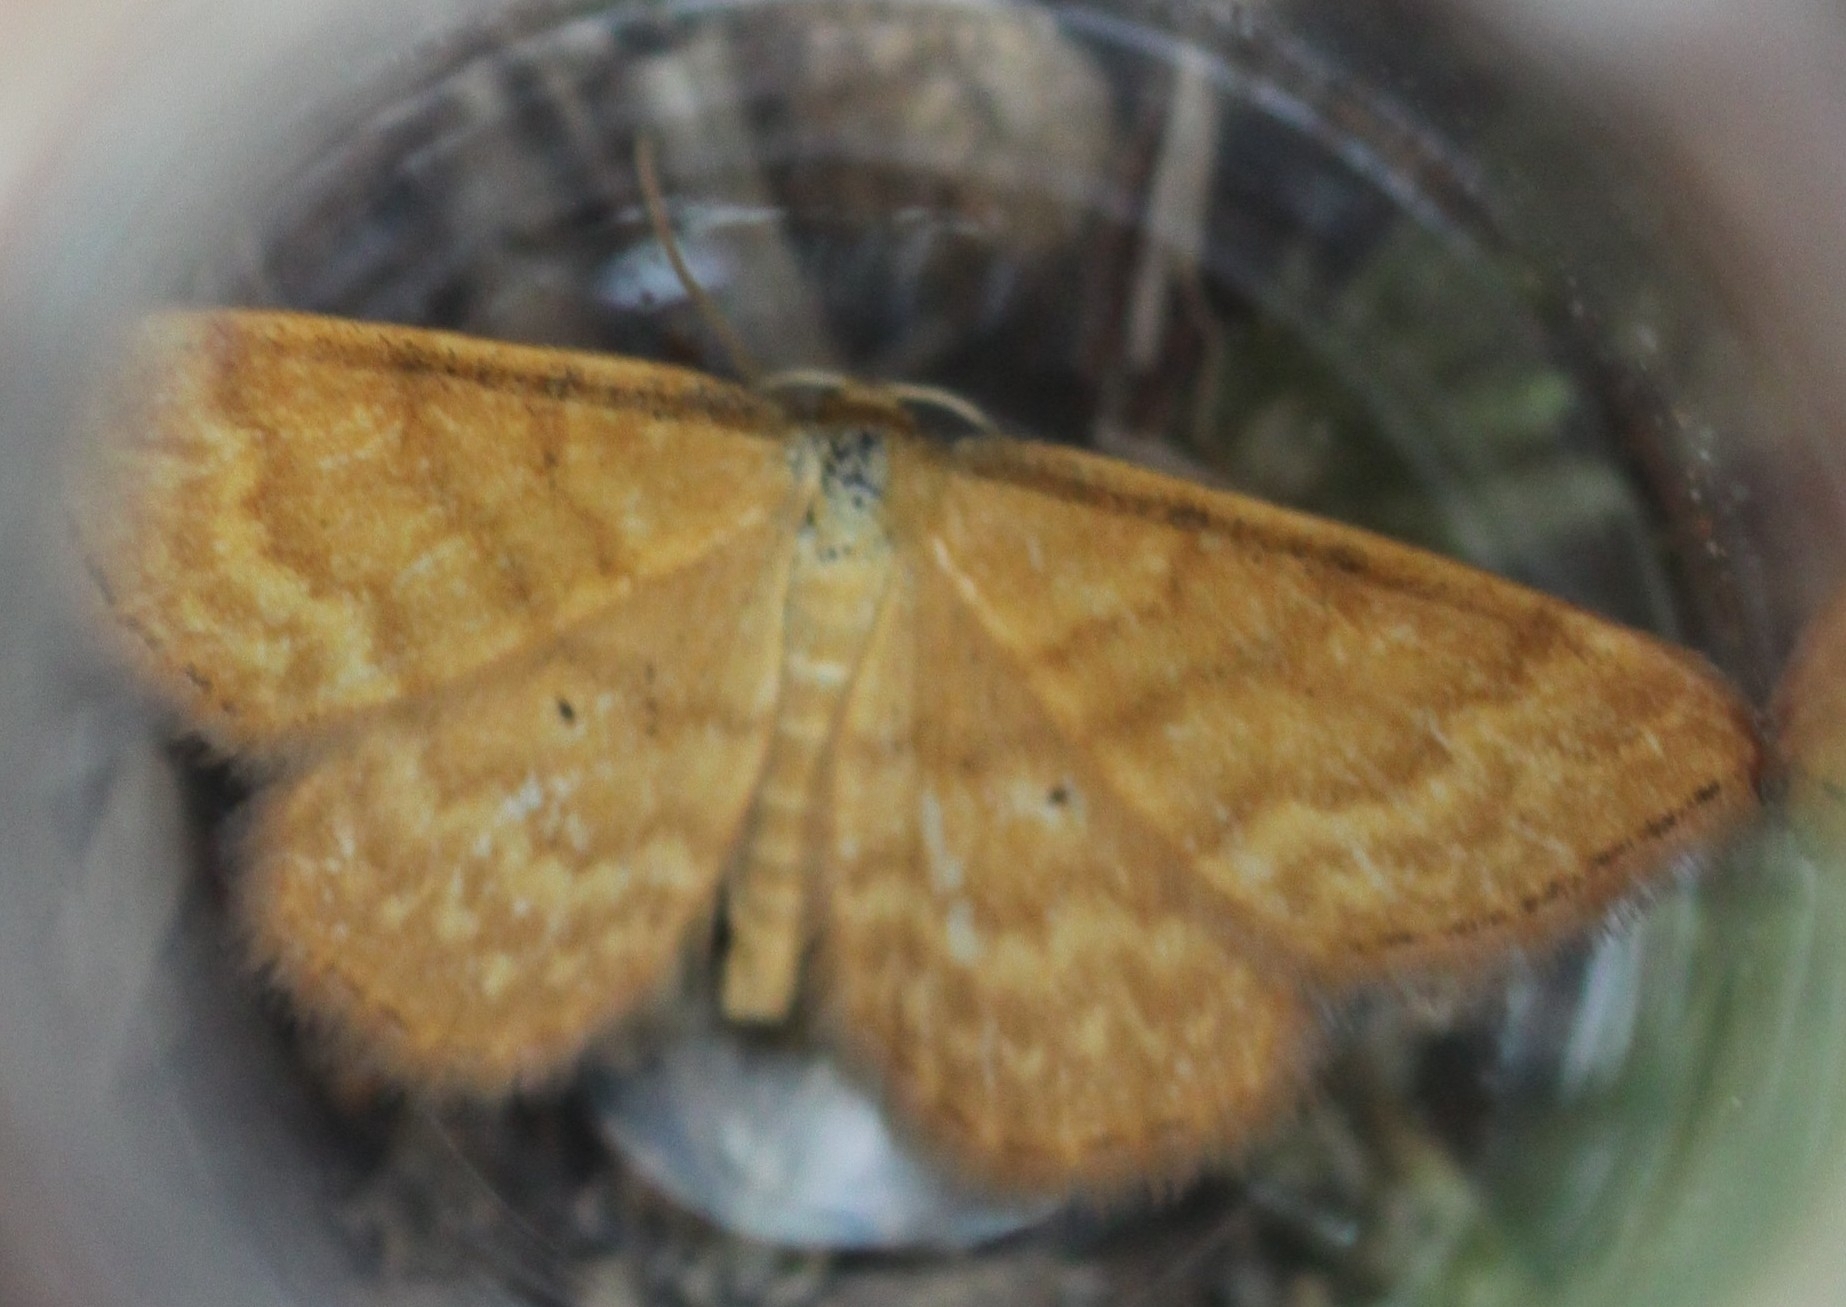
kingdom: Animalia
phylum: Arthropoda
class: Insecta
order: Lepidoptera
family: Geometridae
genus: Idaea
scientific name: Idaea serpentata
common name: Ochraceous wave
